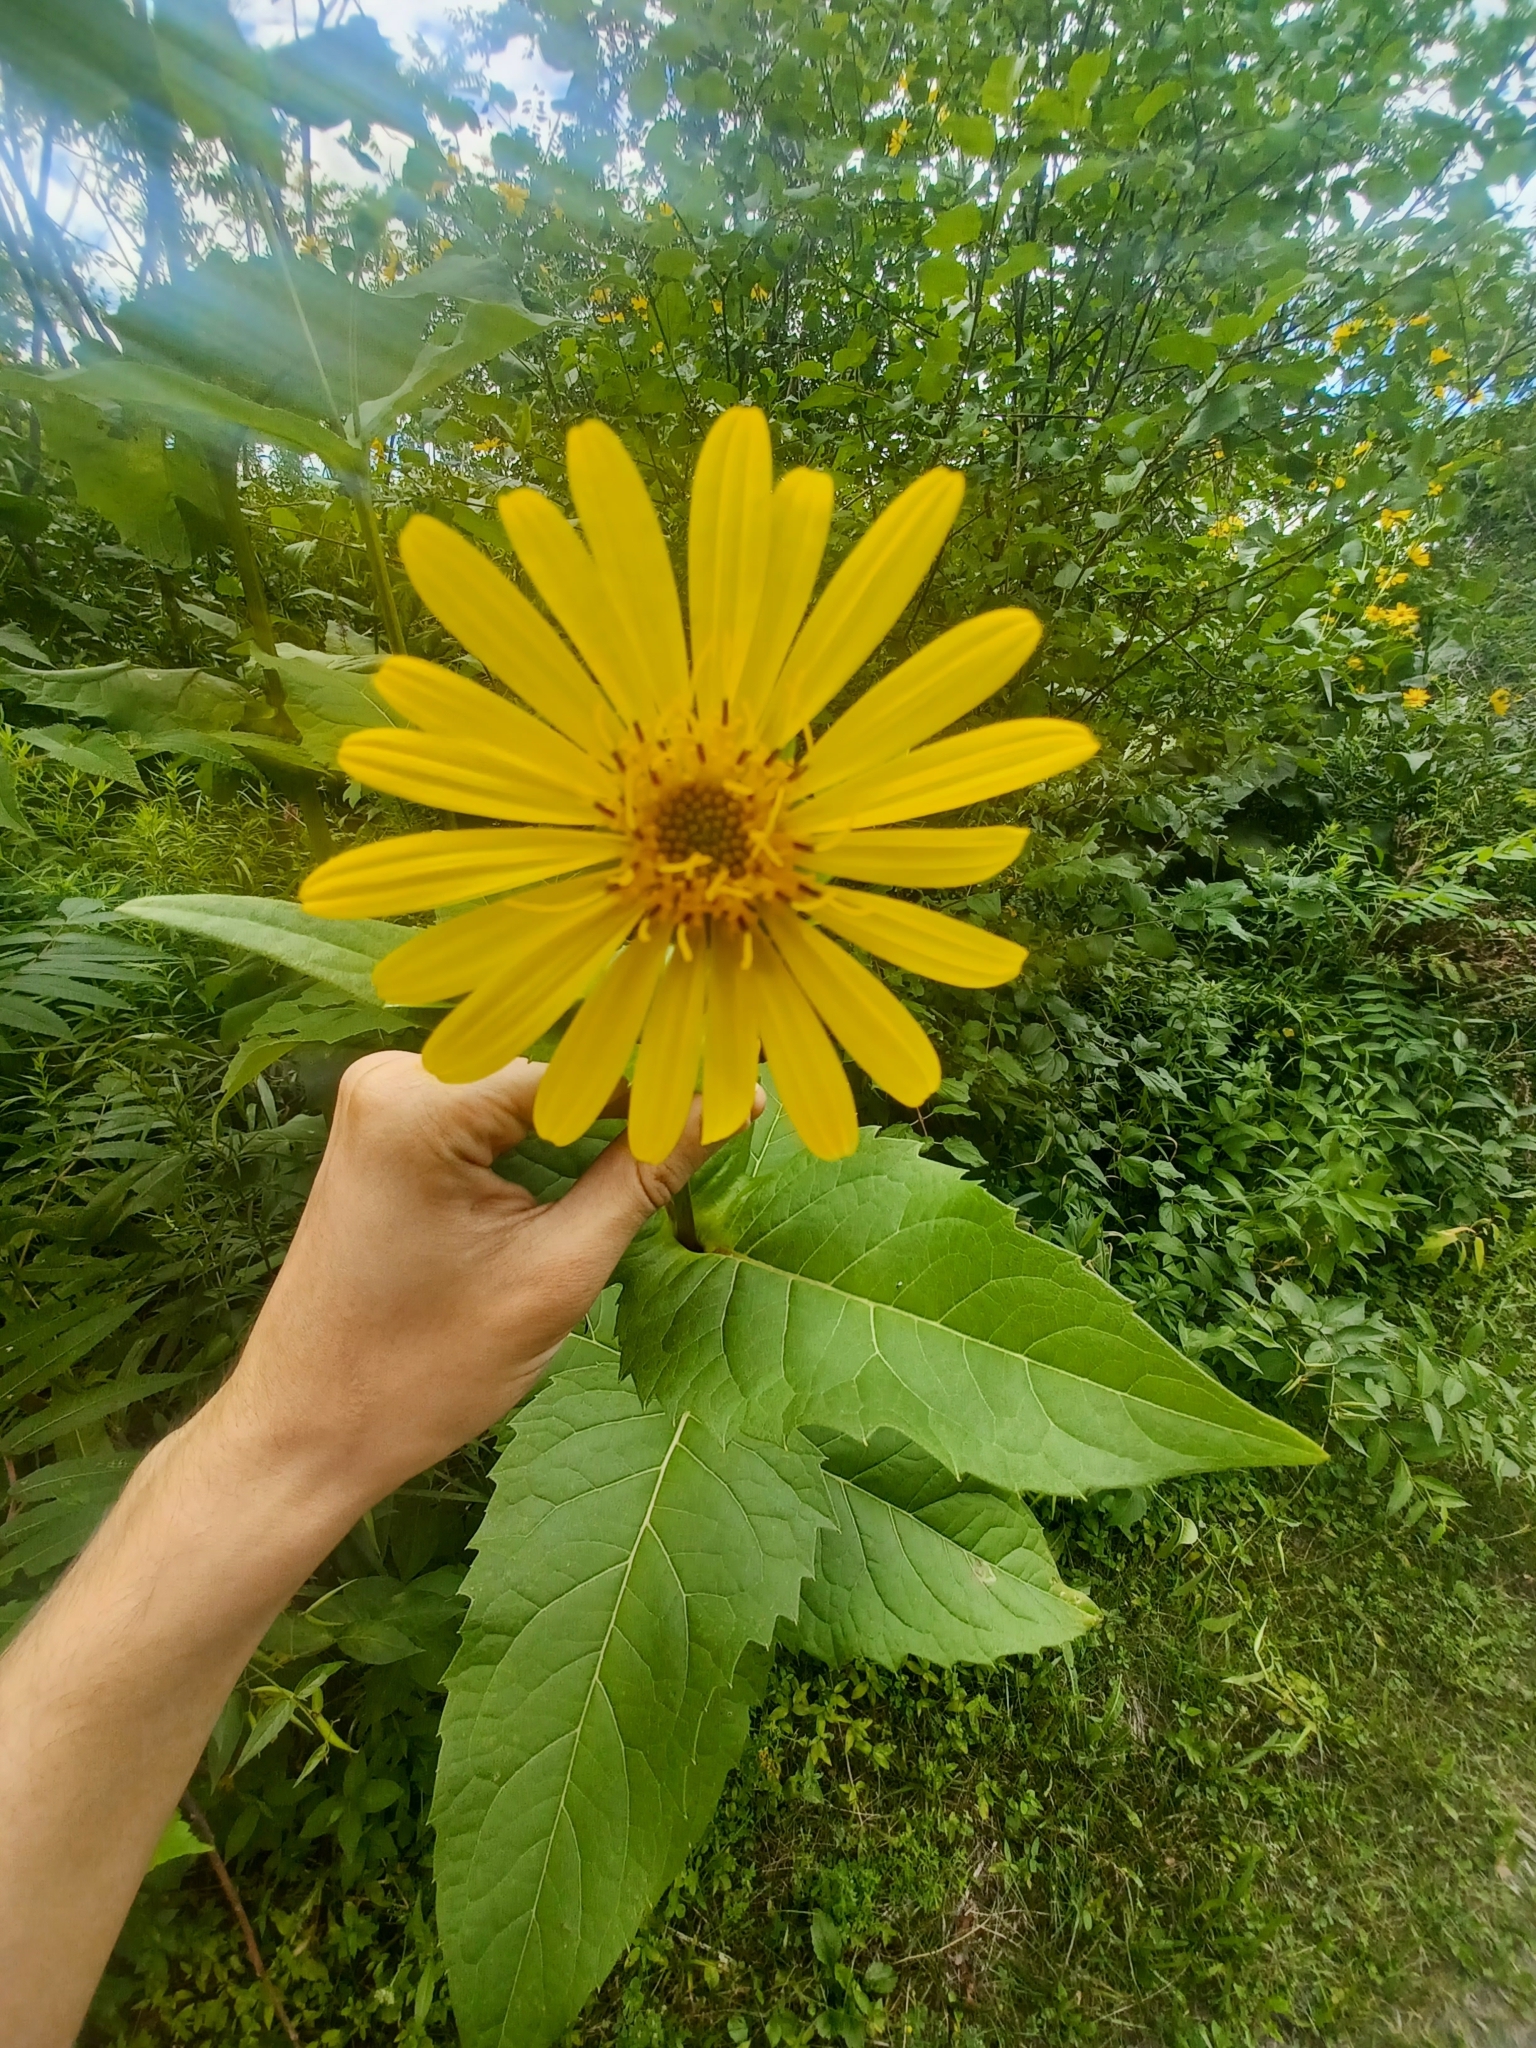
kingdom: Plantae
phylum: Tracheophyta
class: Magnoliopsida
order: Asterales
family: Asteraceae
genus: Silphium
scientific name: Silphium perfoliatum
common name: Cup-plant
